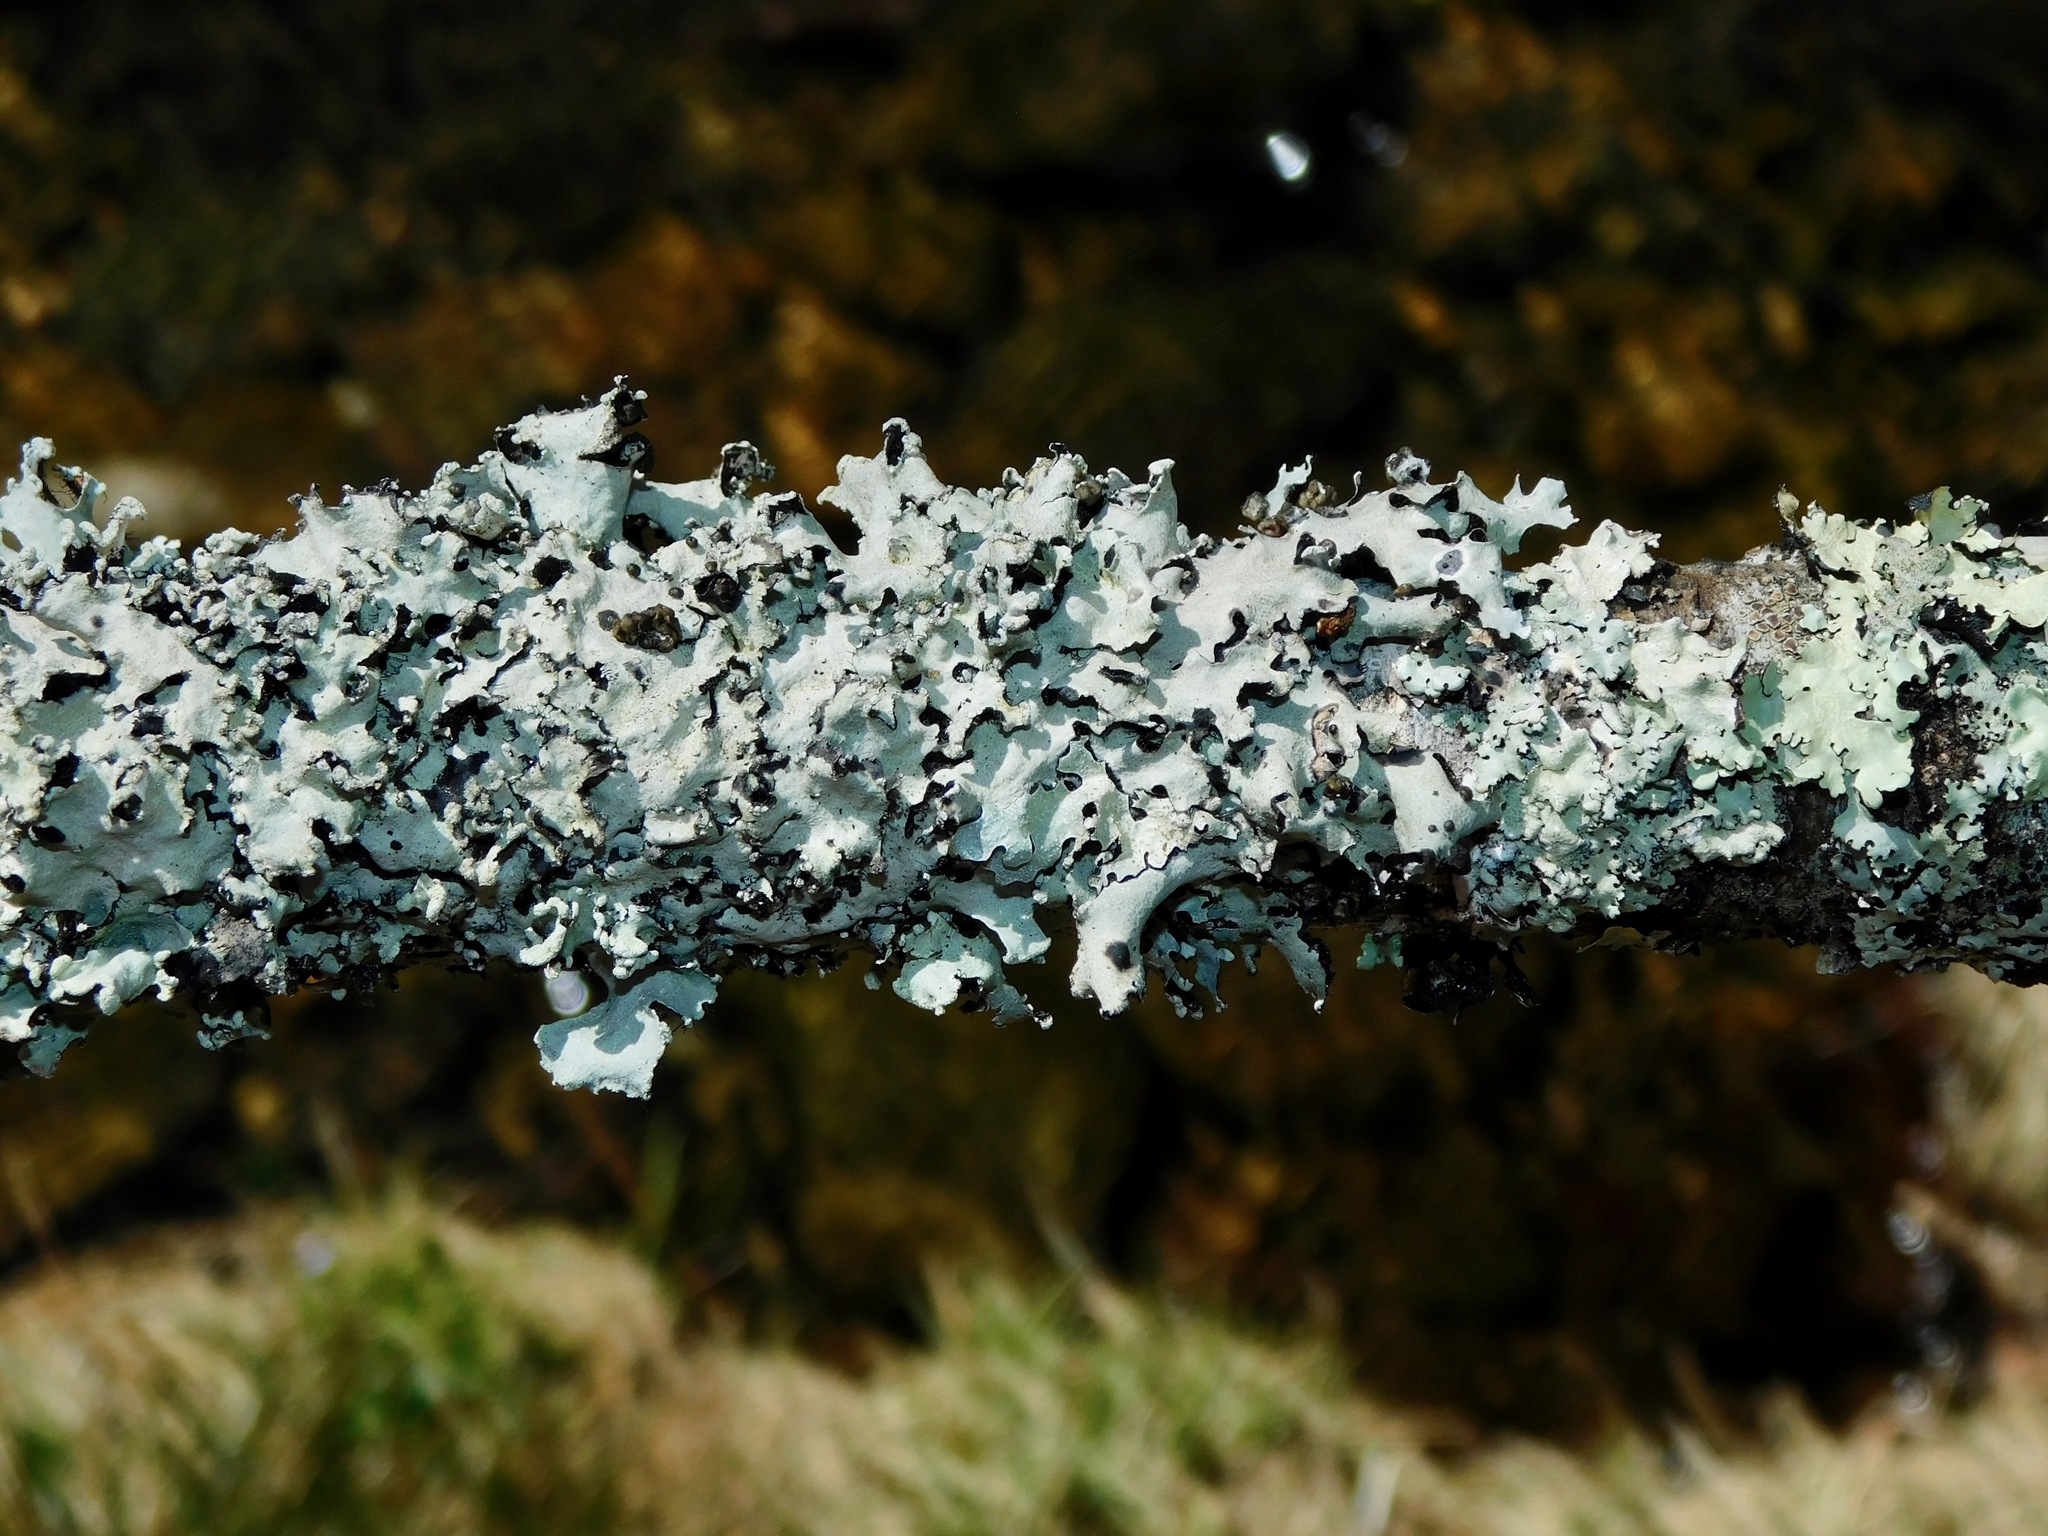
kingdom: Fungi
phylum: Ascomycota
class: Lecanoromycetes
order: Lecanorales
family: Parmeliaceae
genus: Parmotrema
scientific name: Parmotrema reticulatum
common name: Black sheet lichen
